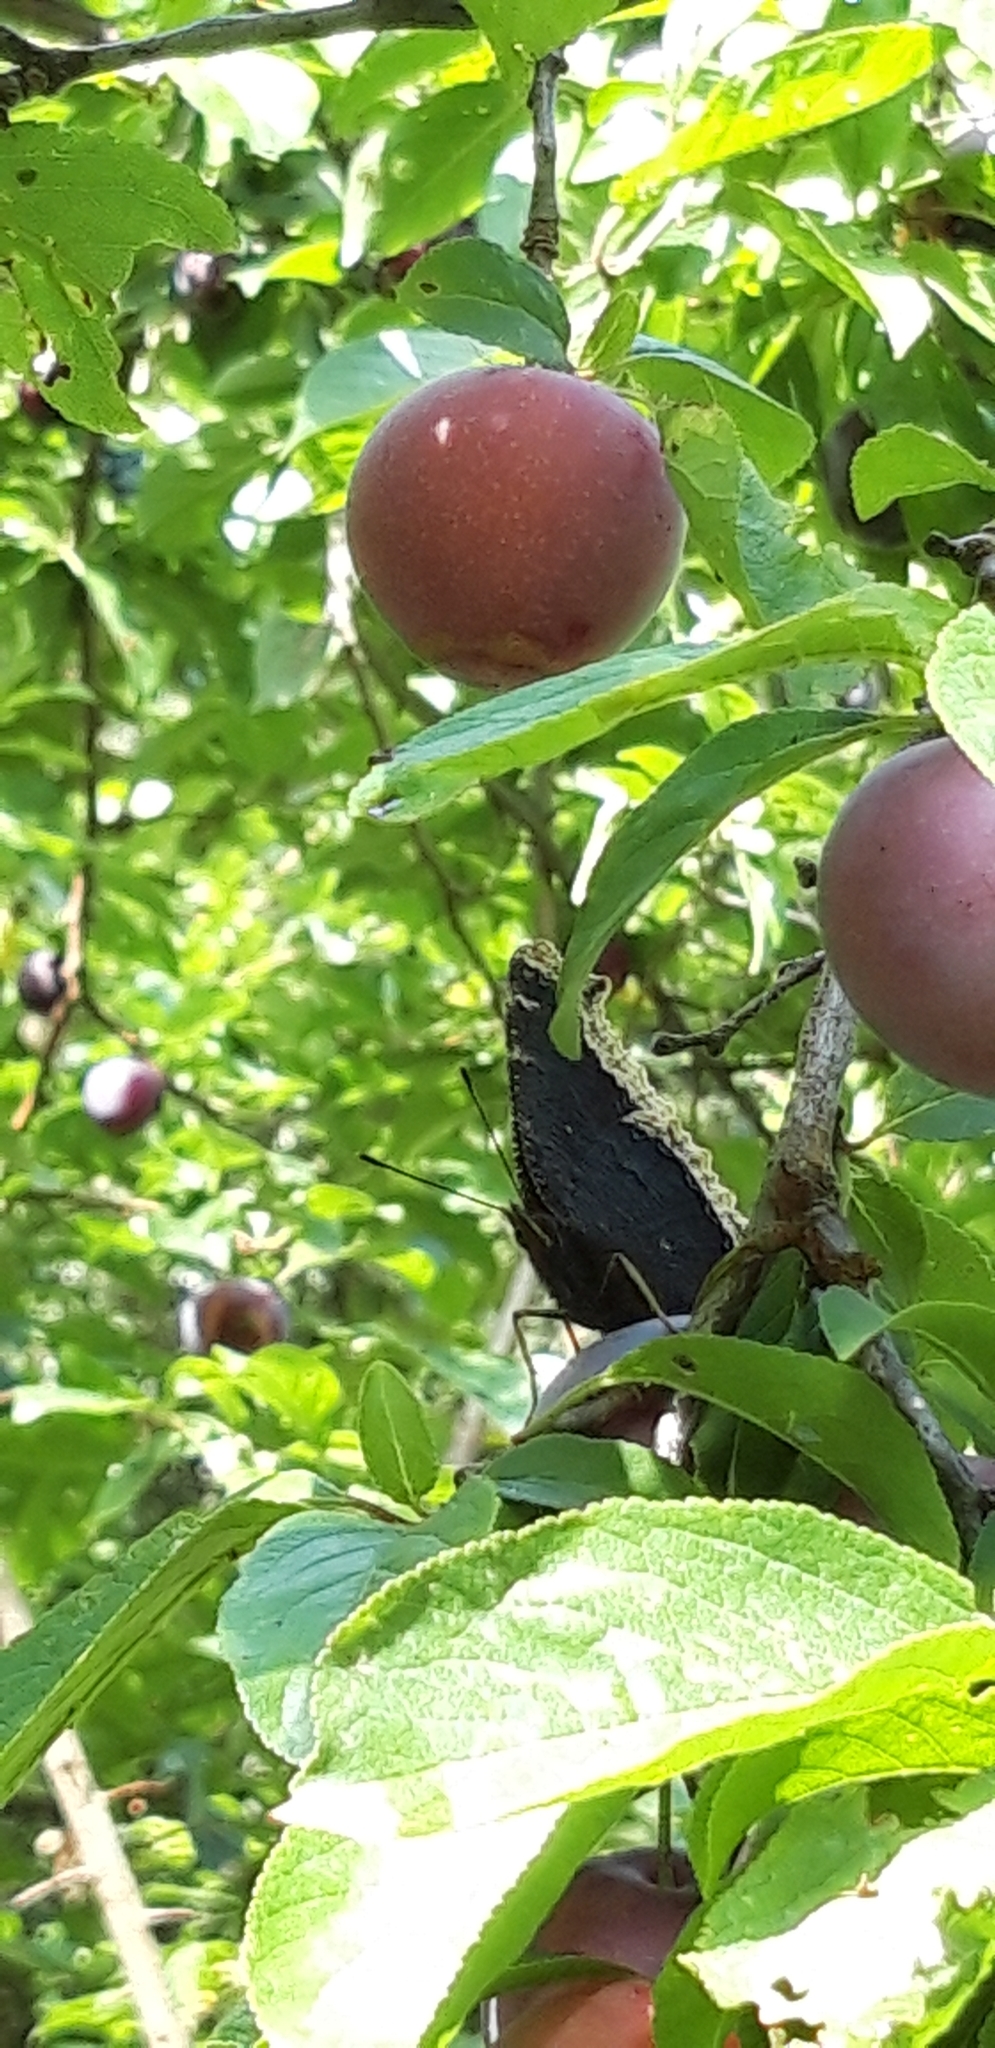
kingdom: Animalia
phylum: Arthropoda
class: Insecta
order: Lepidoptera
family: Nymphalidae
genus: Nymphalis
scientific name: Nymphalis antiopa
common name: Camberwell beauty
